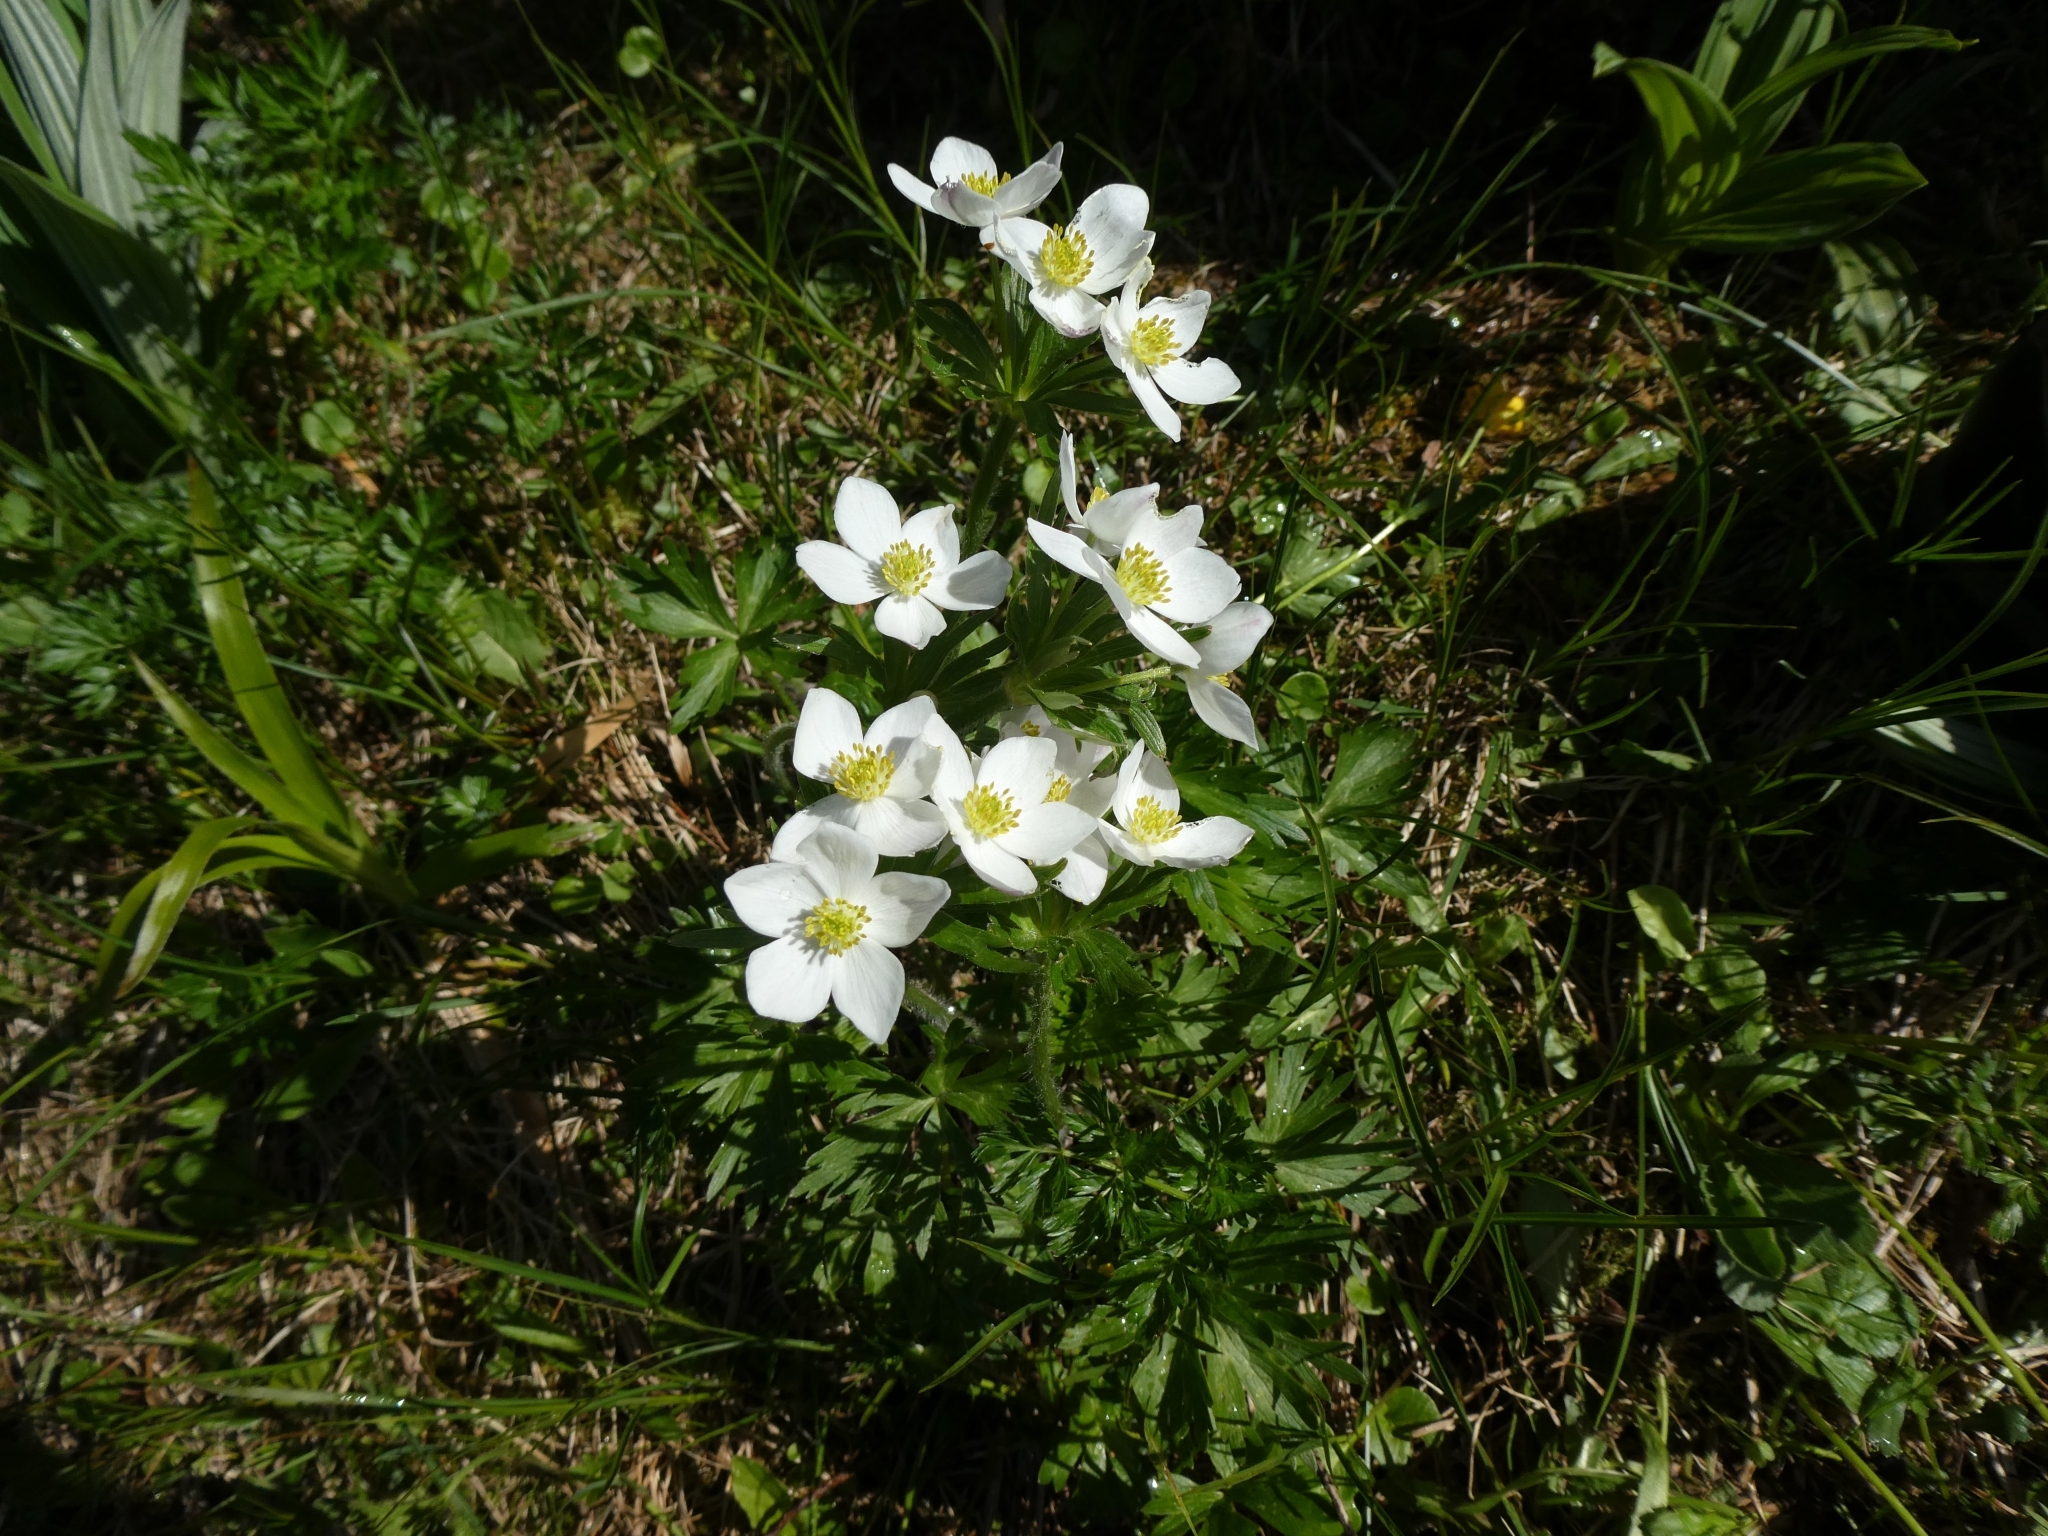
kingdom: Plantae
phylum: Tracheophyta
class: Magnoliopsida
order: Ranunculales
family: Ranunculaceae
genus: Anemonastrum
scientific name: Anemonastrum narcissiflorum
